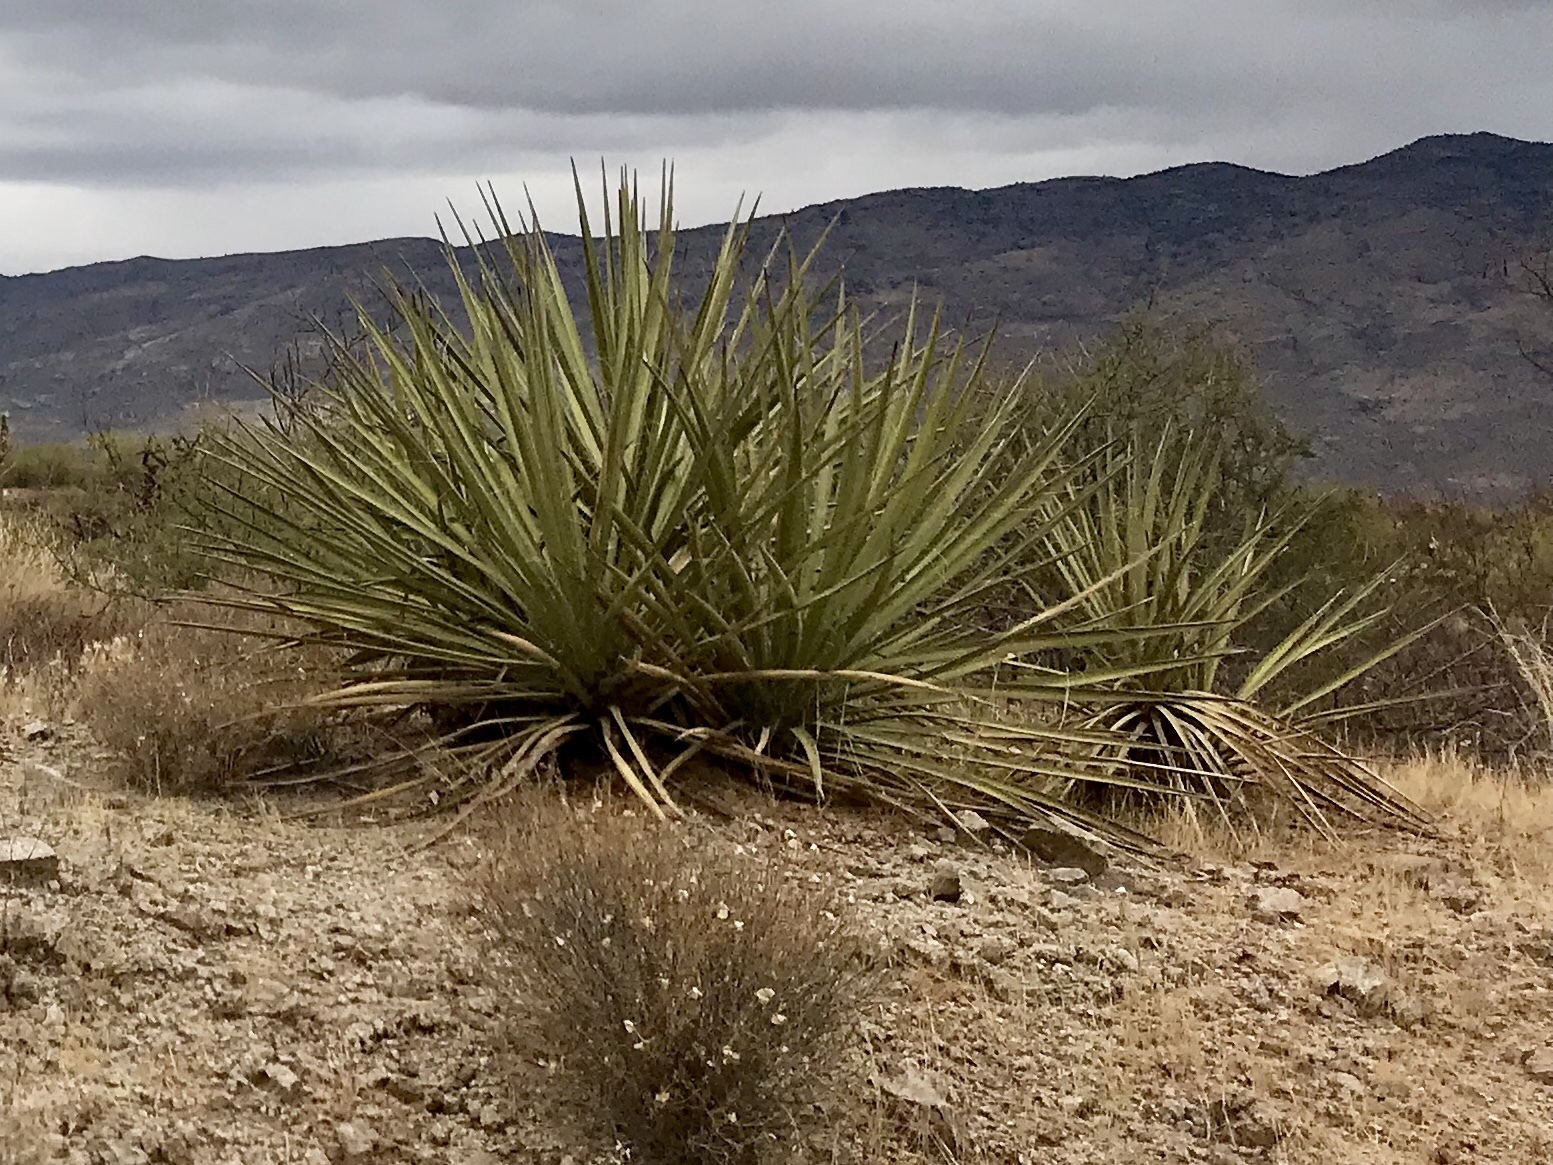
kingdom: Plantae
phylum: Tracheophyta
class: Liliopsida
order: Asparagales
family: Asparagaceae
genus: Yucca
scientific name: Yucca baccata
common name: Banana yucca
